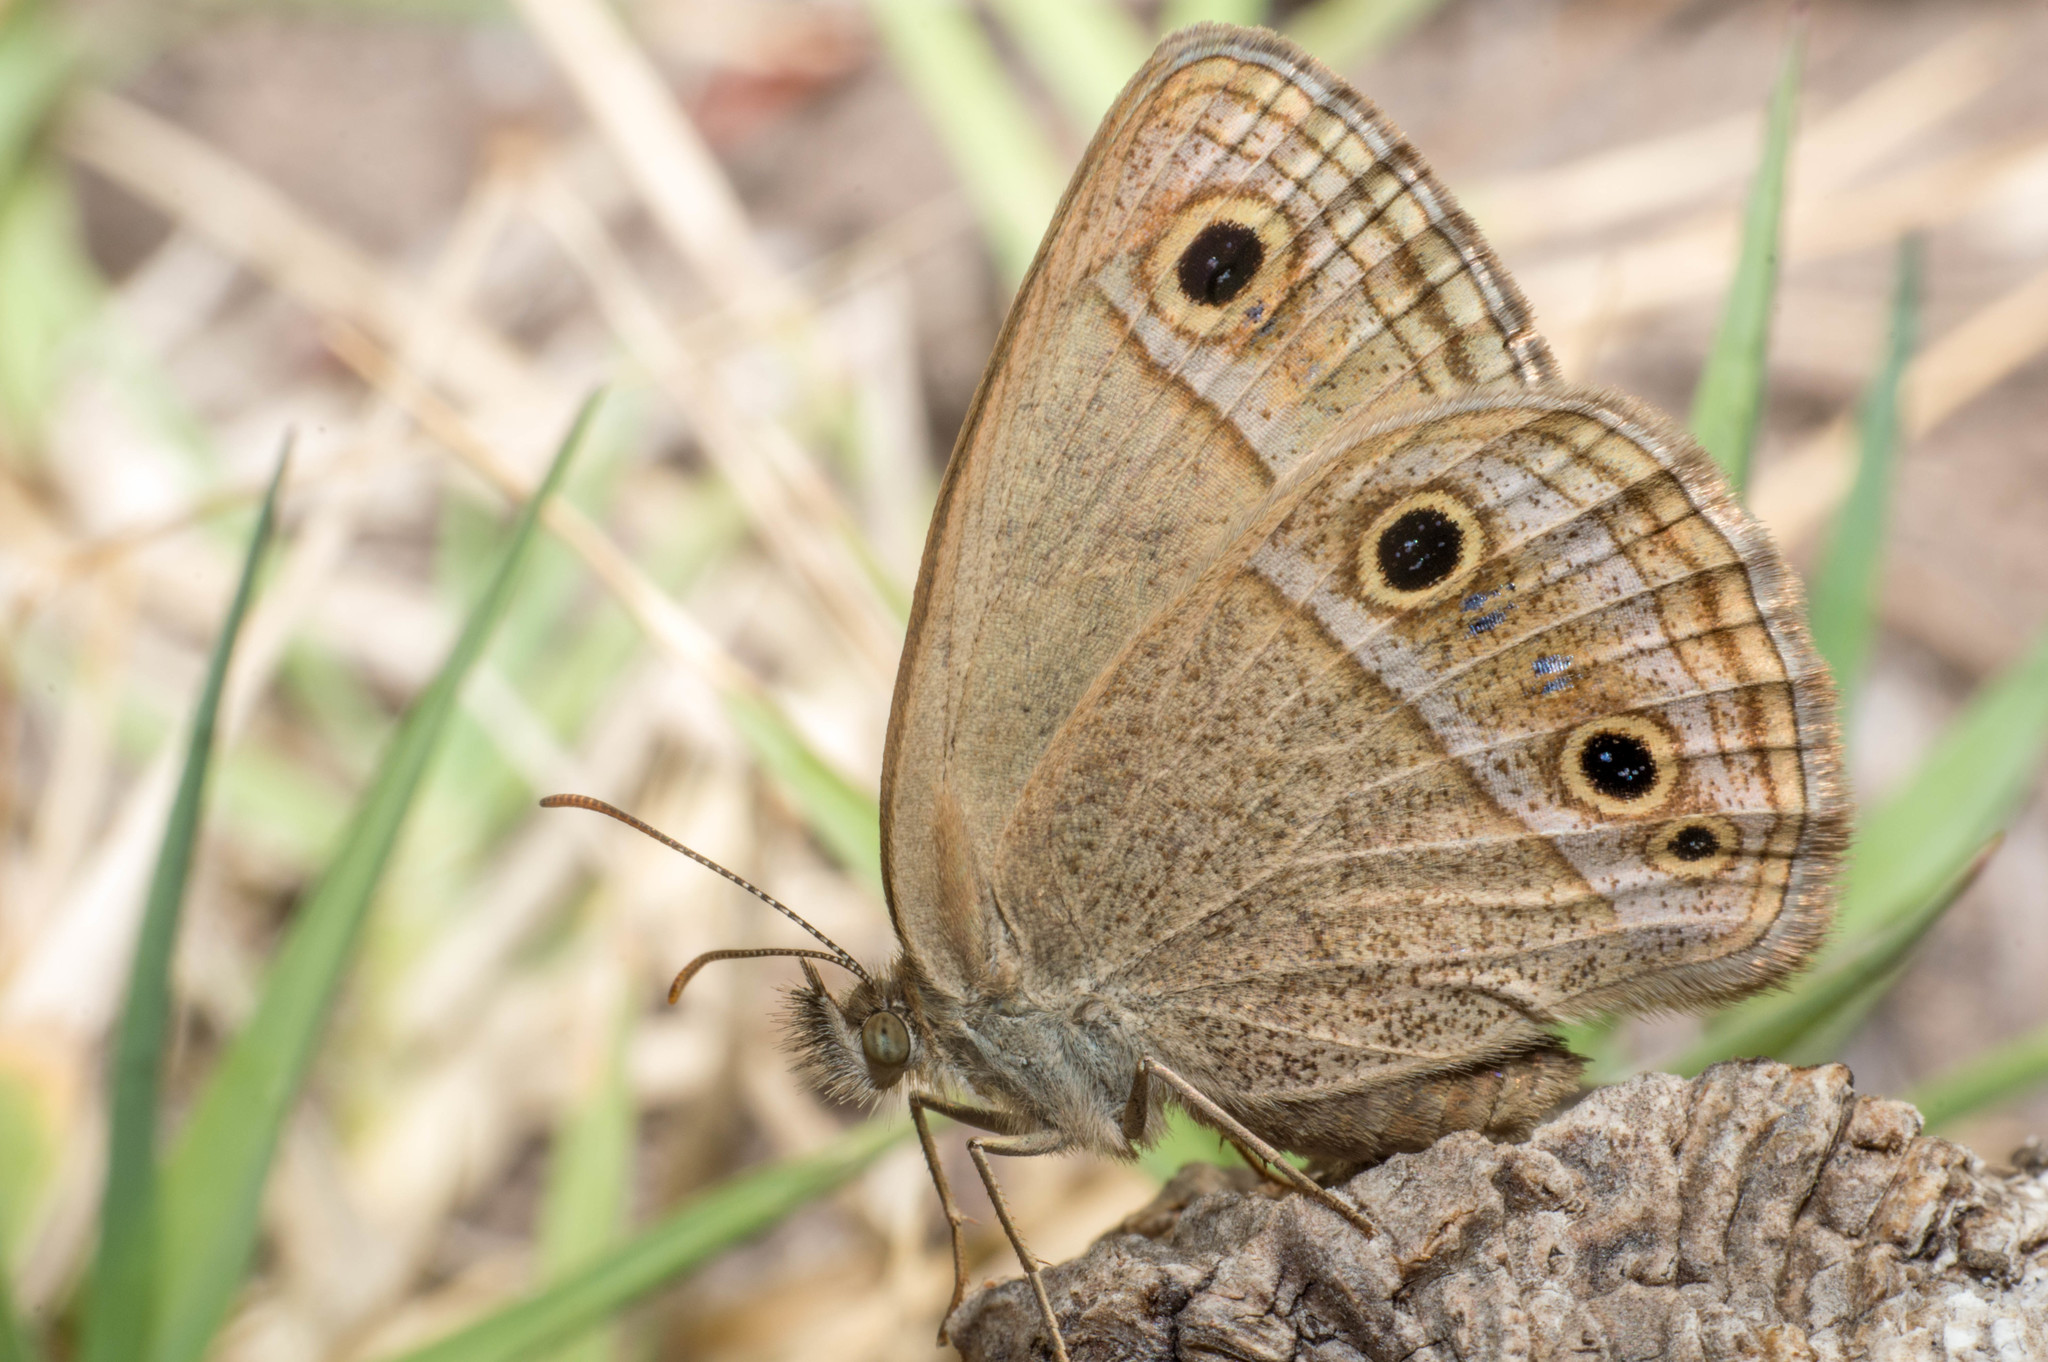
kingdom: Animalia
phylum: Arthropoda
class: Insecta
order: Lepidoptera
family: Nymphalidae
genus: Stegosatyrus
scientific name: Stegosatyrus periphas
